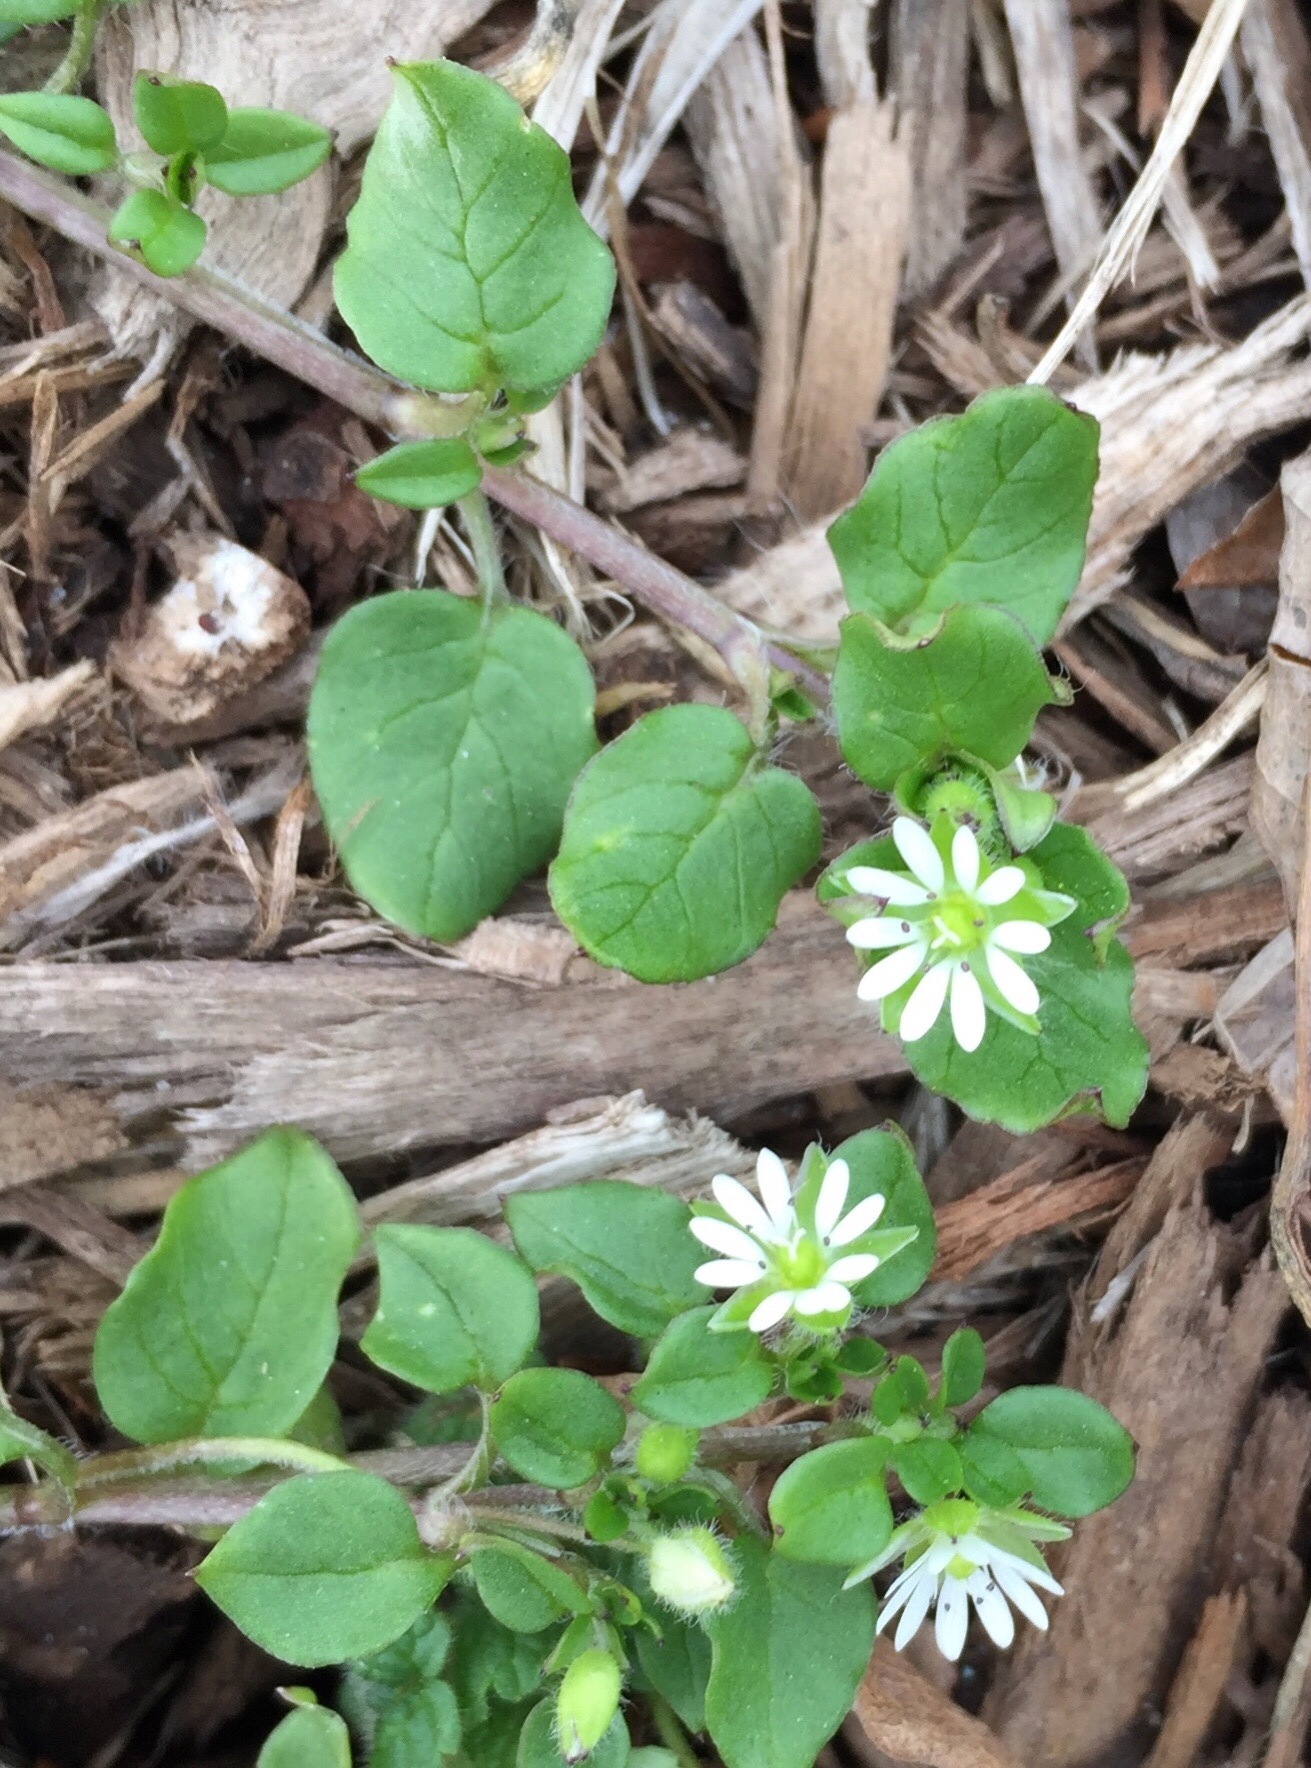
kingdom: Plantae
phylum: Tracheophyta
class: Magnoliopsida
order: Caryophyllales
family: Caryophyllaceae
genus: Stellaria
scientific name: Stellaria media
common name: Common chickweed
